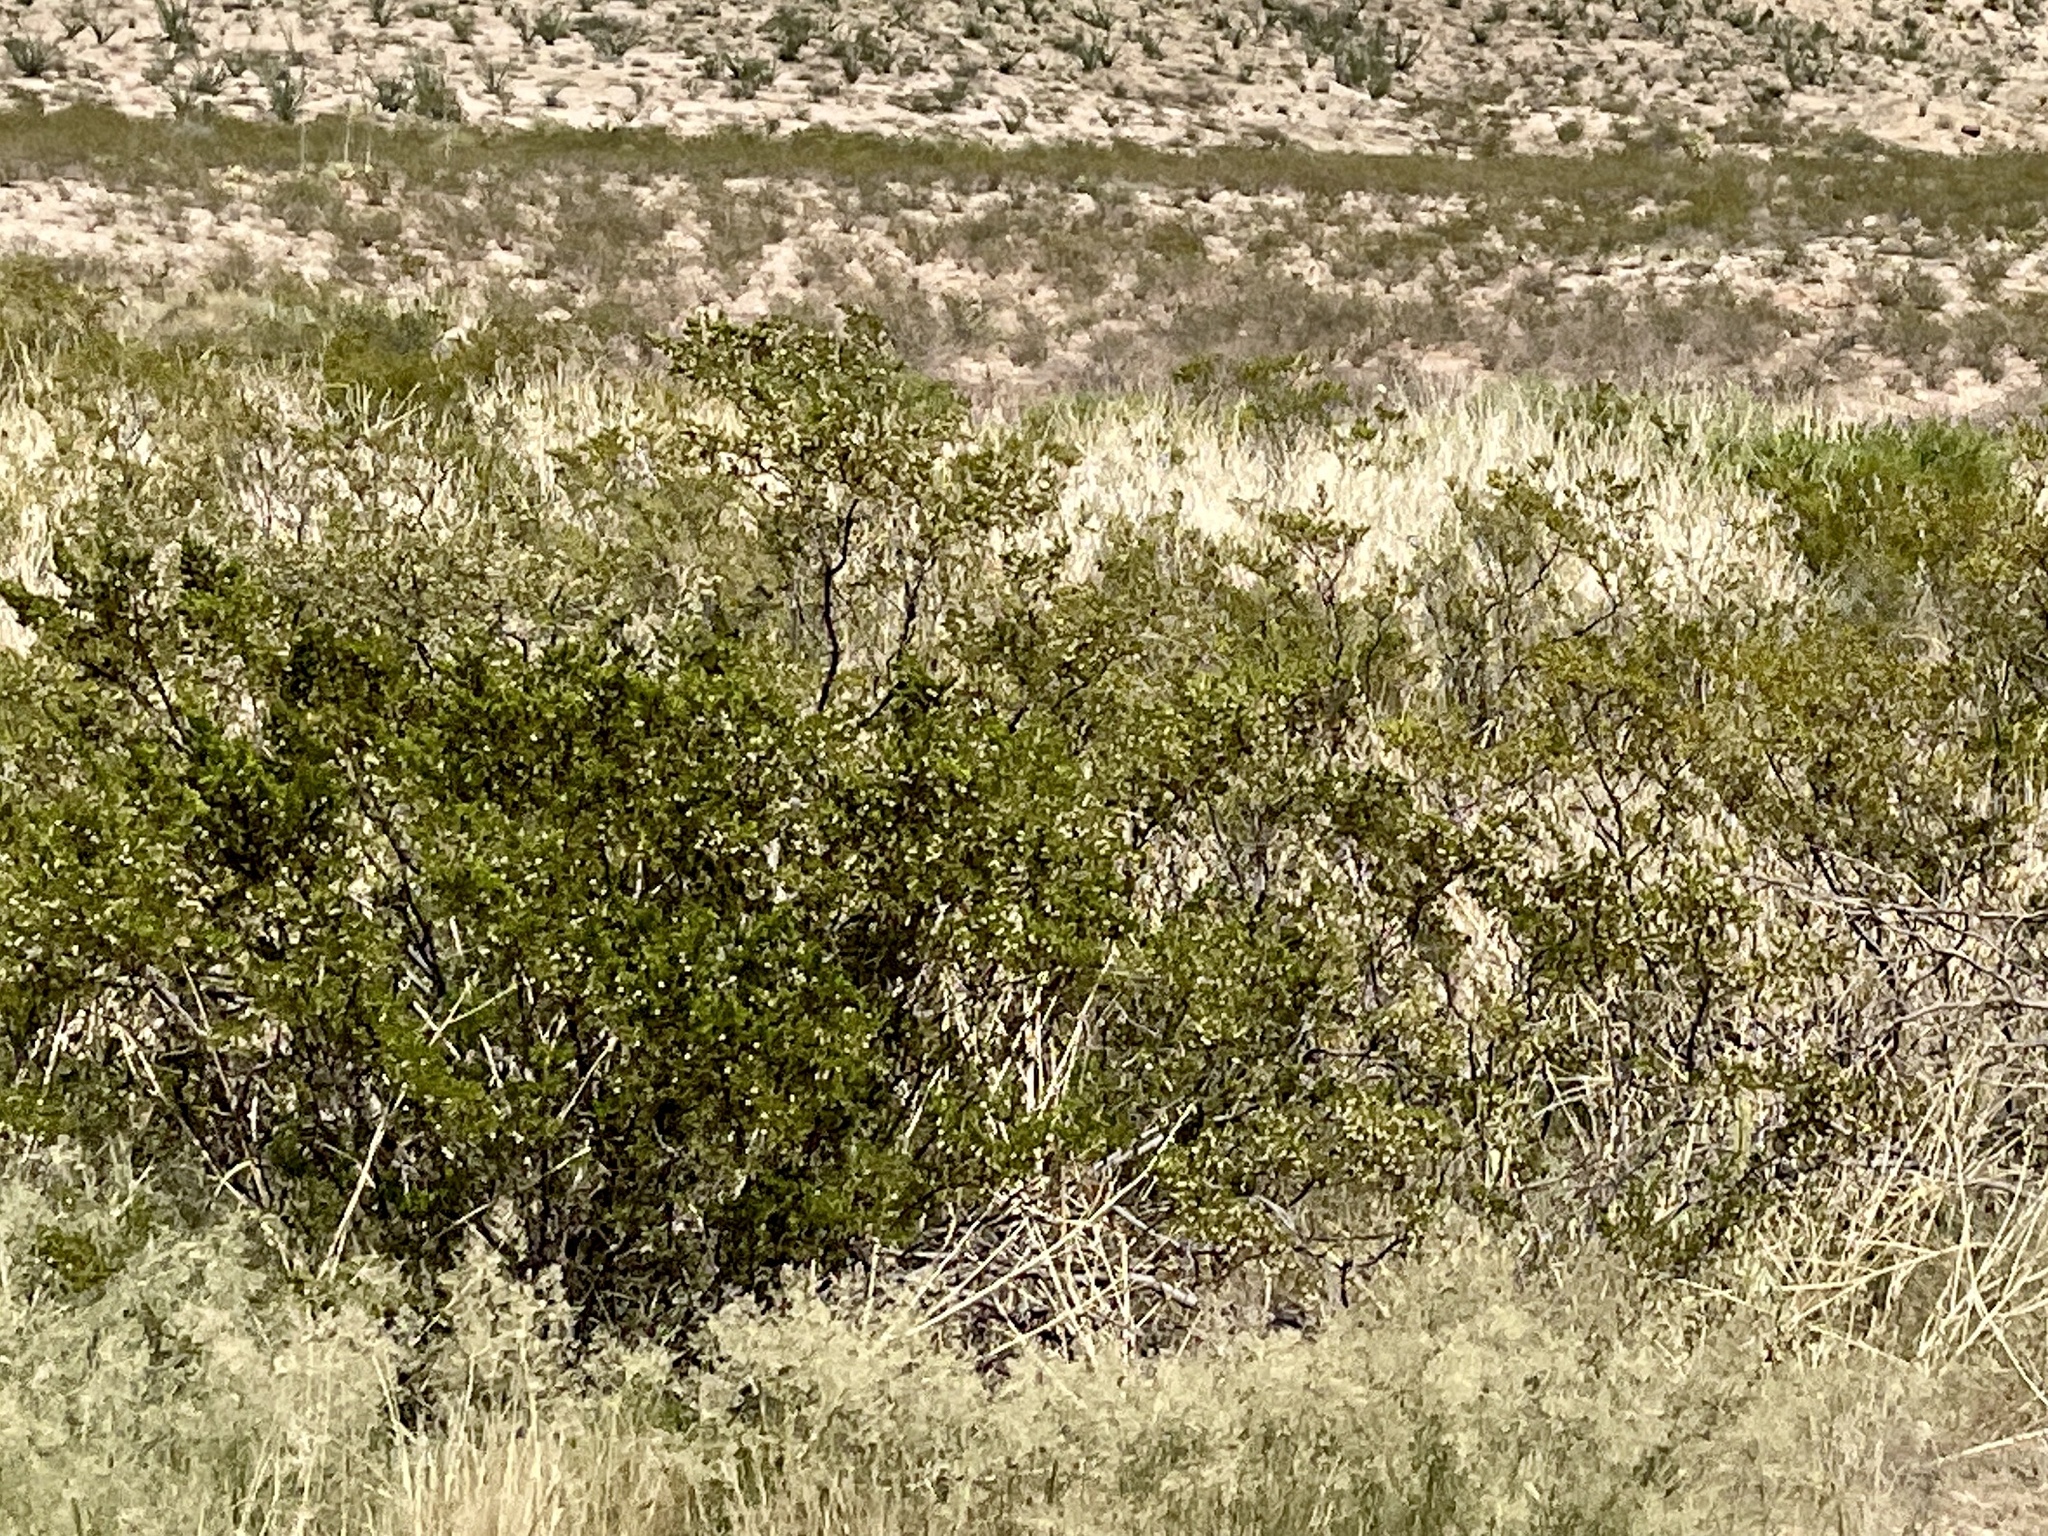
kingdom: Plantae
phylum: Tracheophyta
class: Magnoliopsida
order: Zygophyllales
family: Zygophyllaceae
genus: Larrea
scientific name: Larrea tridentata
